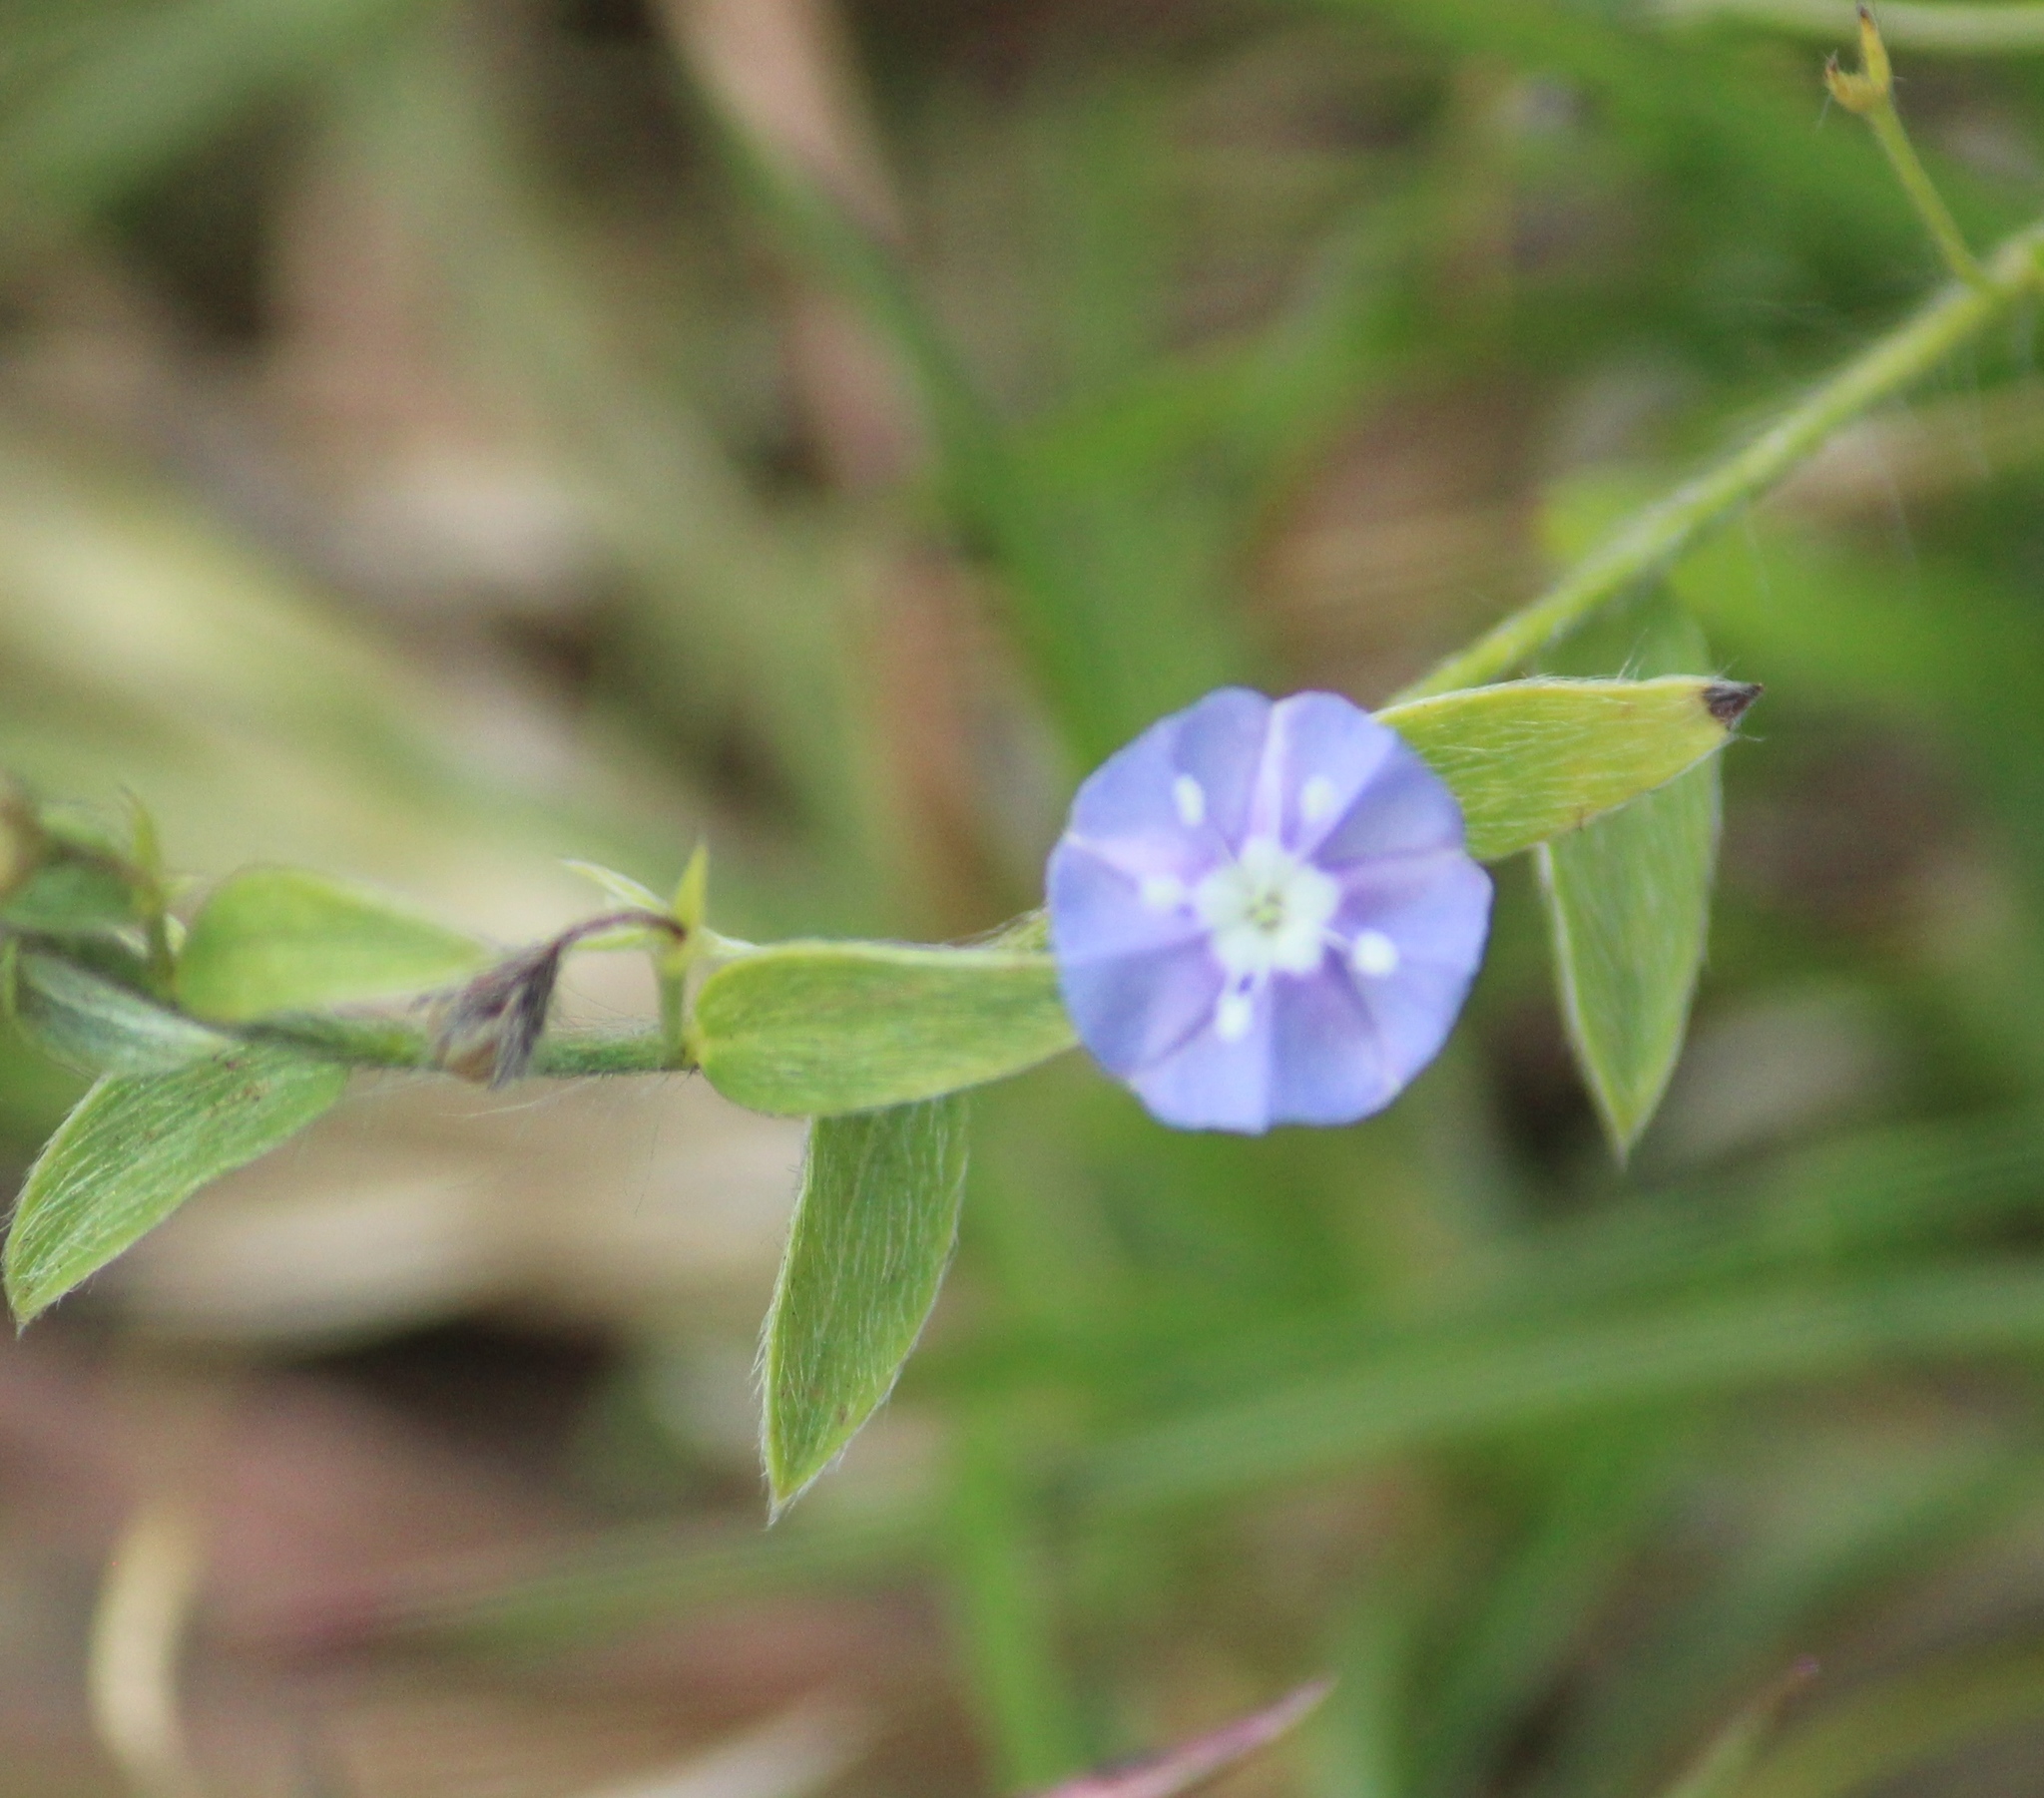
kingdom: Plantae
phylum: Tracheophyta
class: Magnoliopsida
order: Solanales
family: Convolvulaceae
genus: Evolvulus
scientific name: Evolvulus alsinoides
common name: Slender dwarf morning-glory
